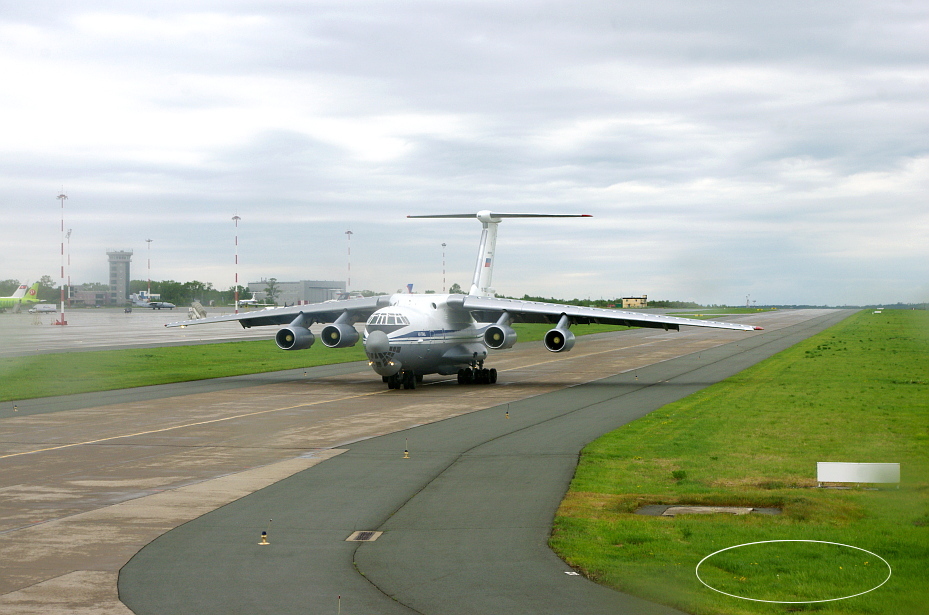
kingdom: Plantae
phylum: Tracheophyta
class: Magnoliopsida
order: Asterales
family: Asteraceae
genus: Taraxacum
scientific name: Taraxacum officinale
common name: Common dandelion
